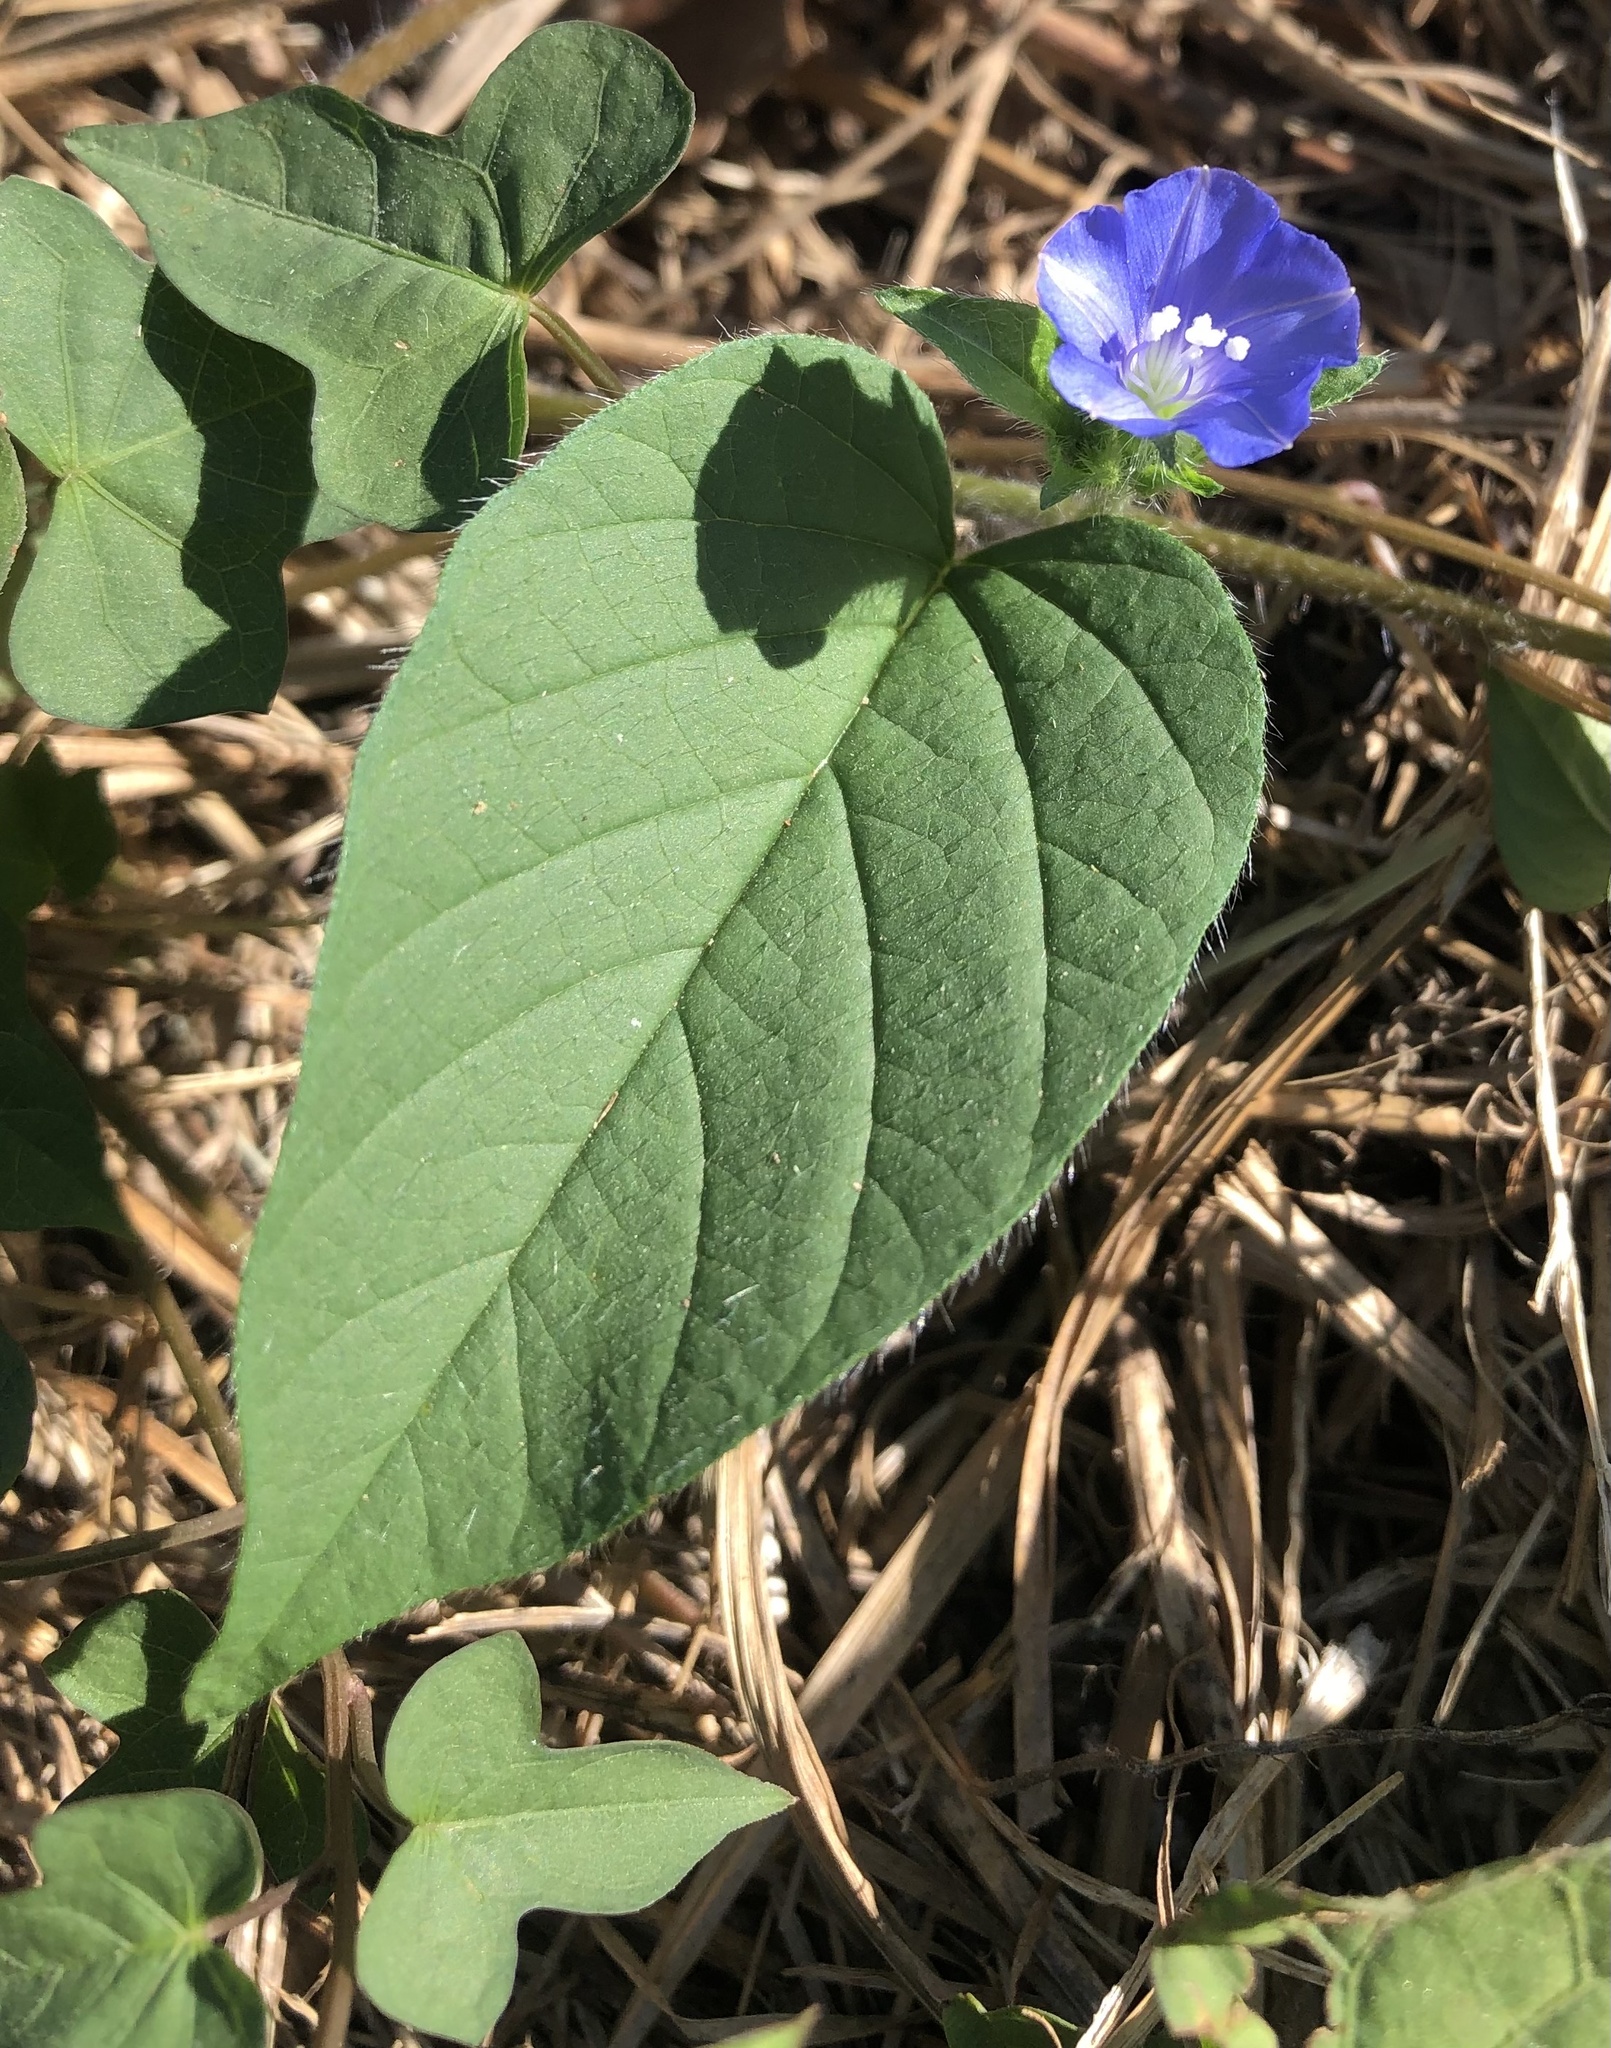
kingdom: Plantae
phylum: Tracheophyta
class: Magnoliopsida
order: Solanales
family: Convolvulaceae
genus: Jacquemontia
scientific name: Jacquemontia tamnifolia
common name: Hairy clustervine
